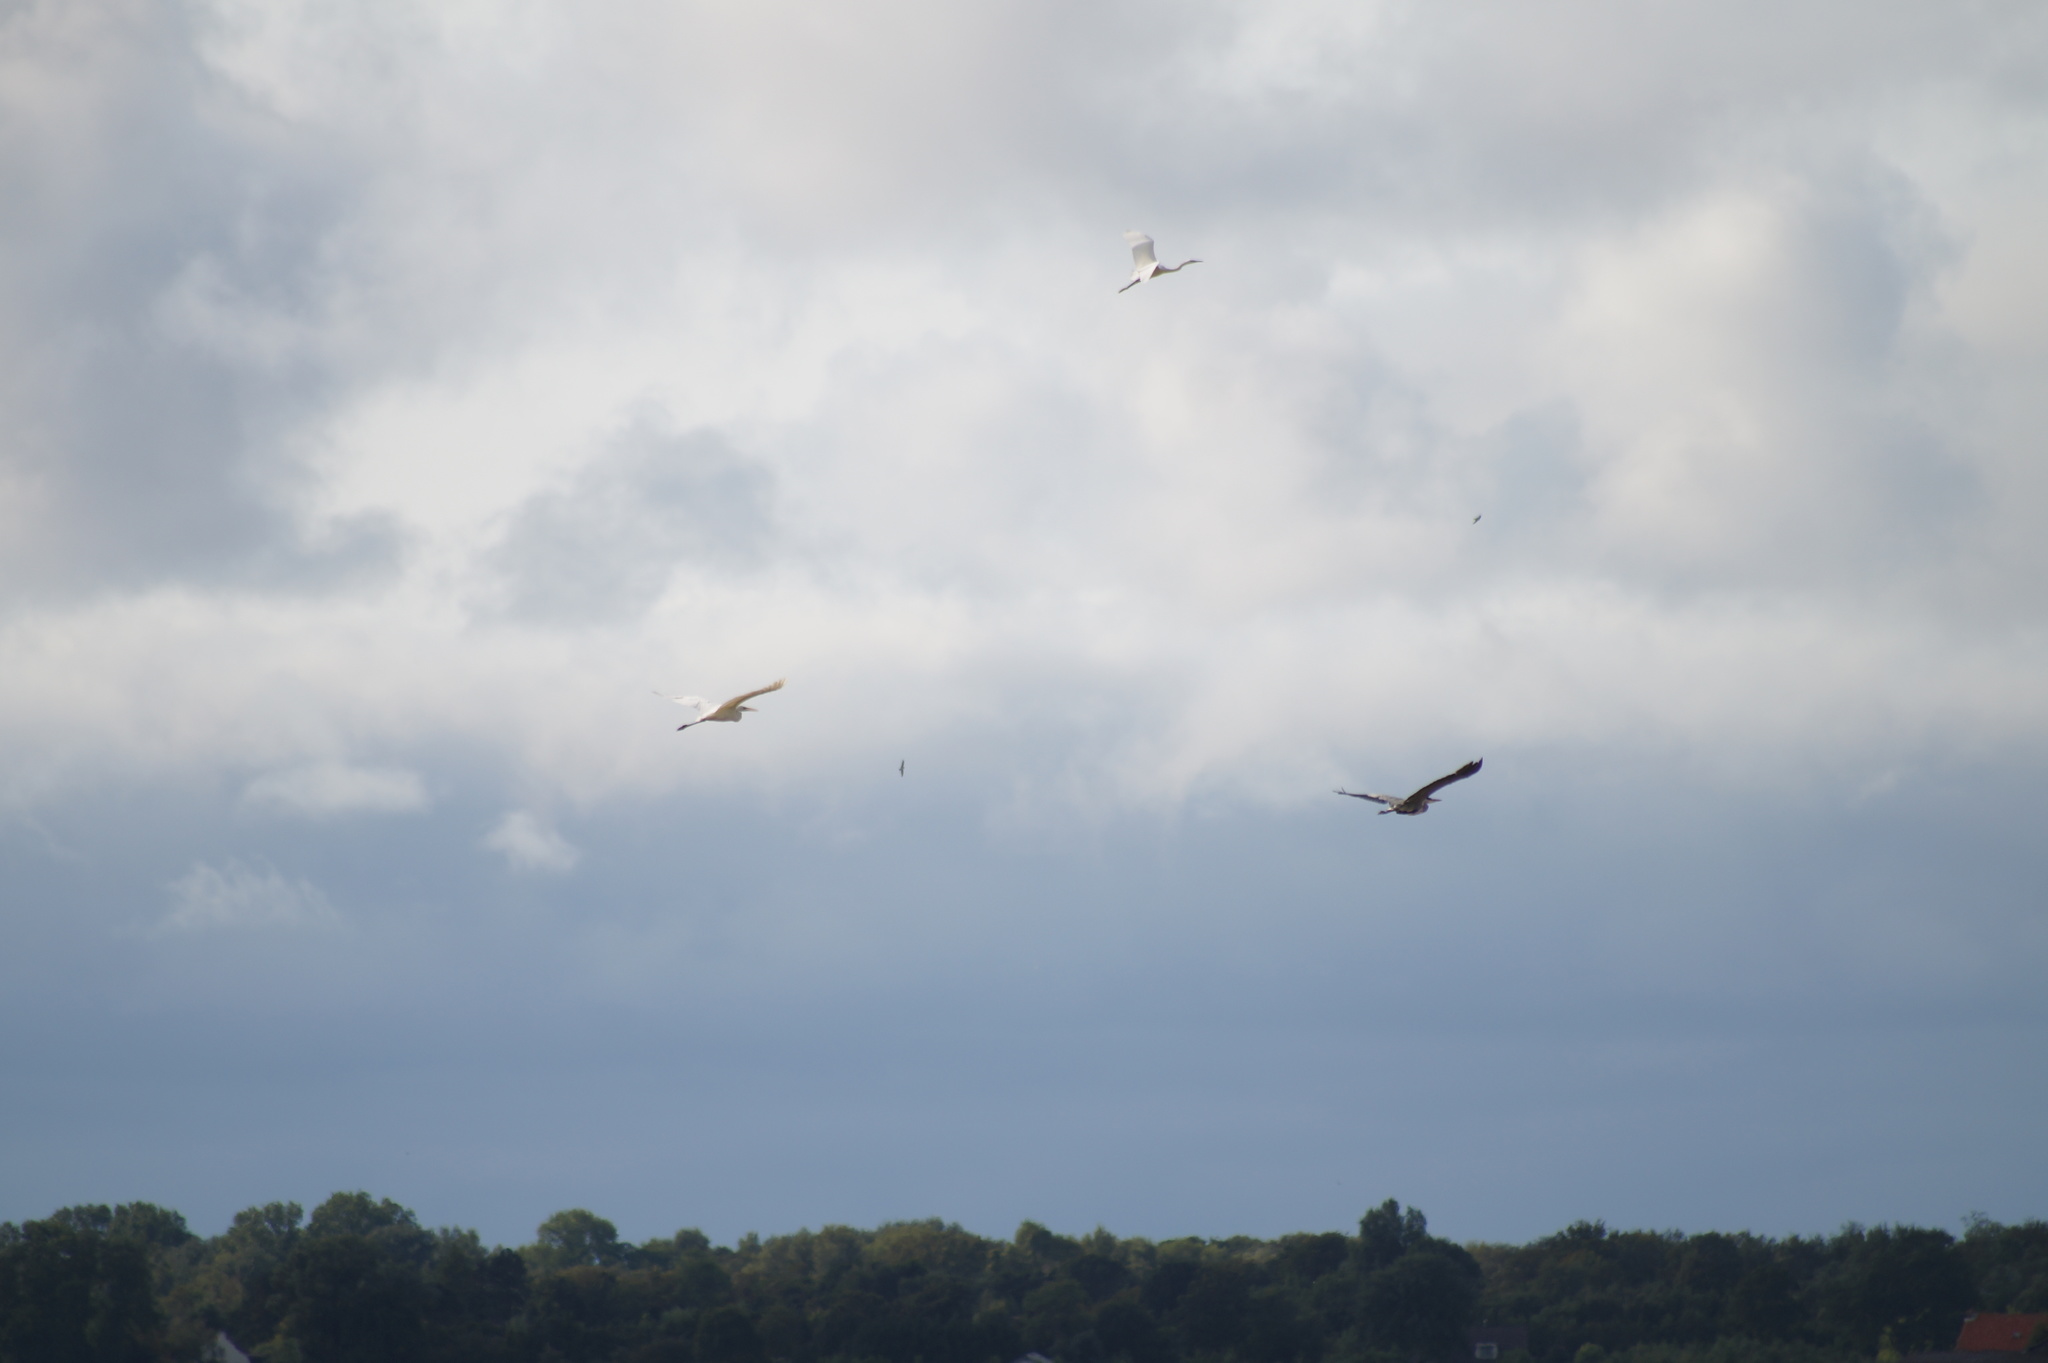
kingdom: Animalia
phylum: Chordata
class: Aves
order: Pelecaniformes
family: Ardeidae
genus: Ardea
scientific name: Ardea cinerea
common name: Grey heron
